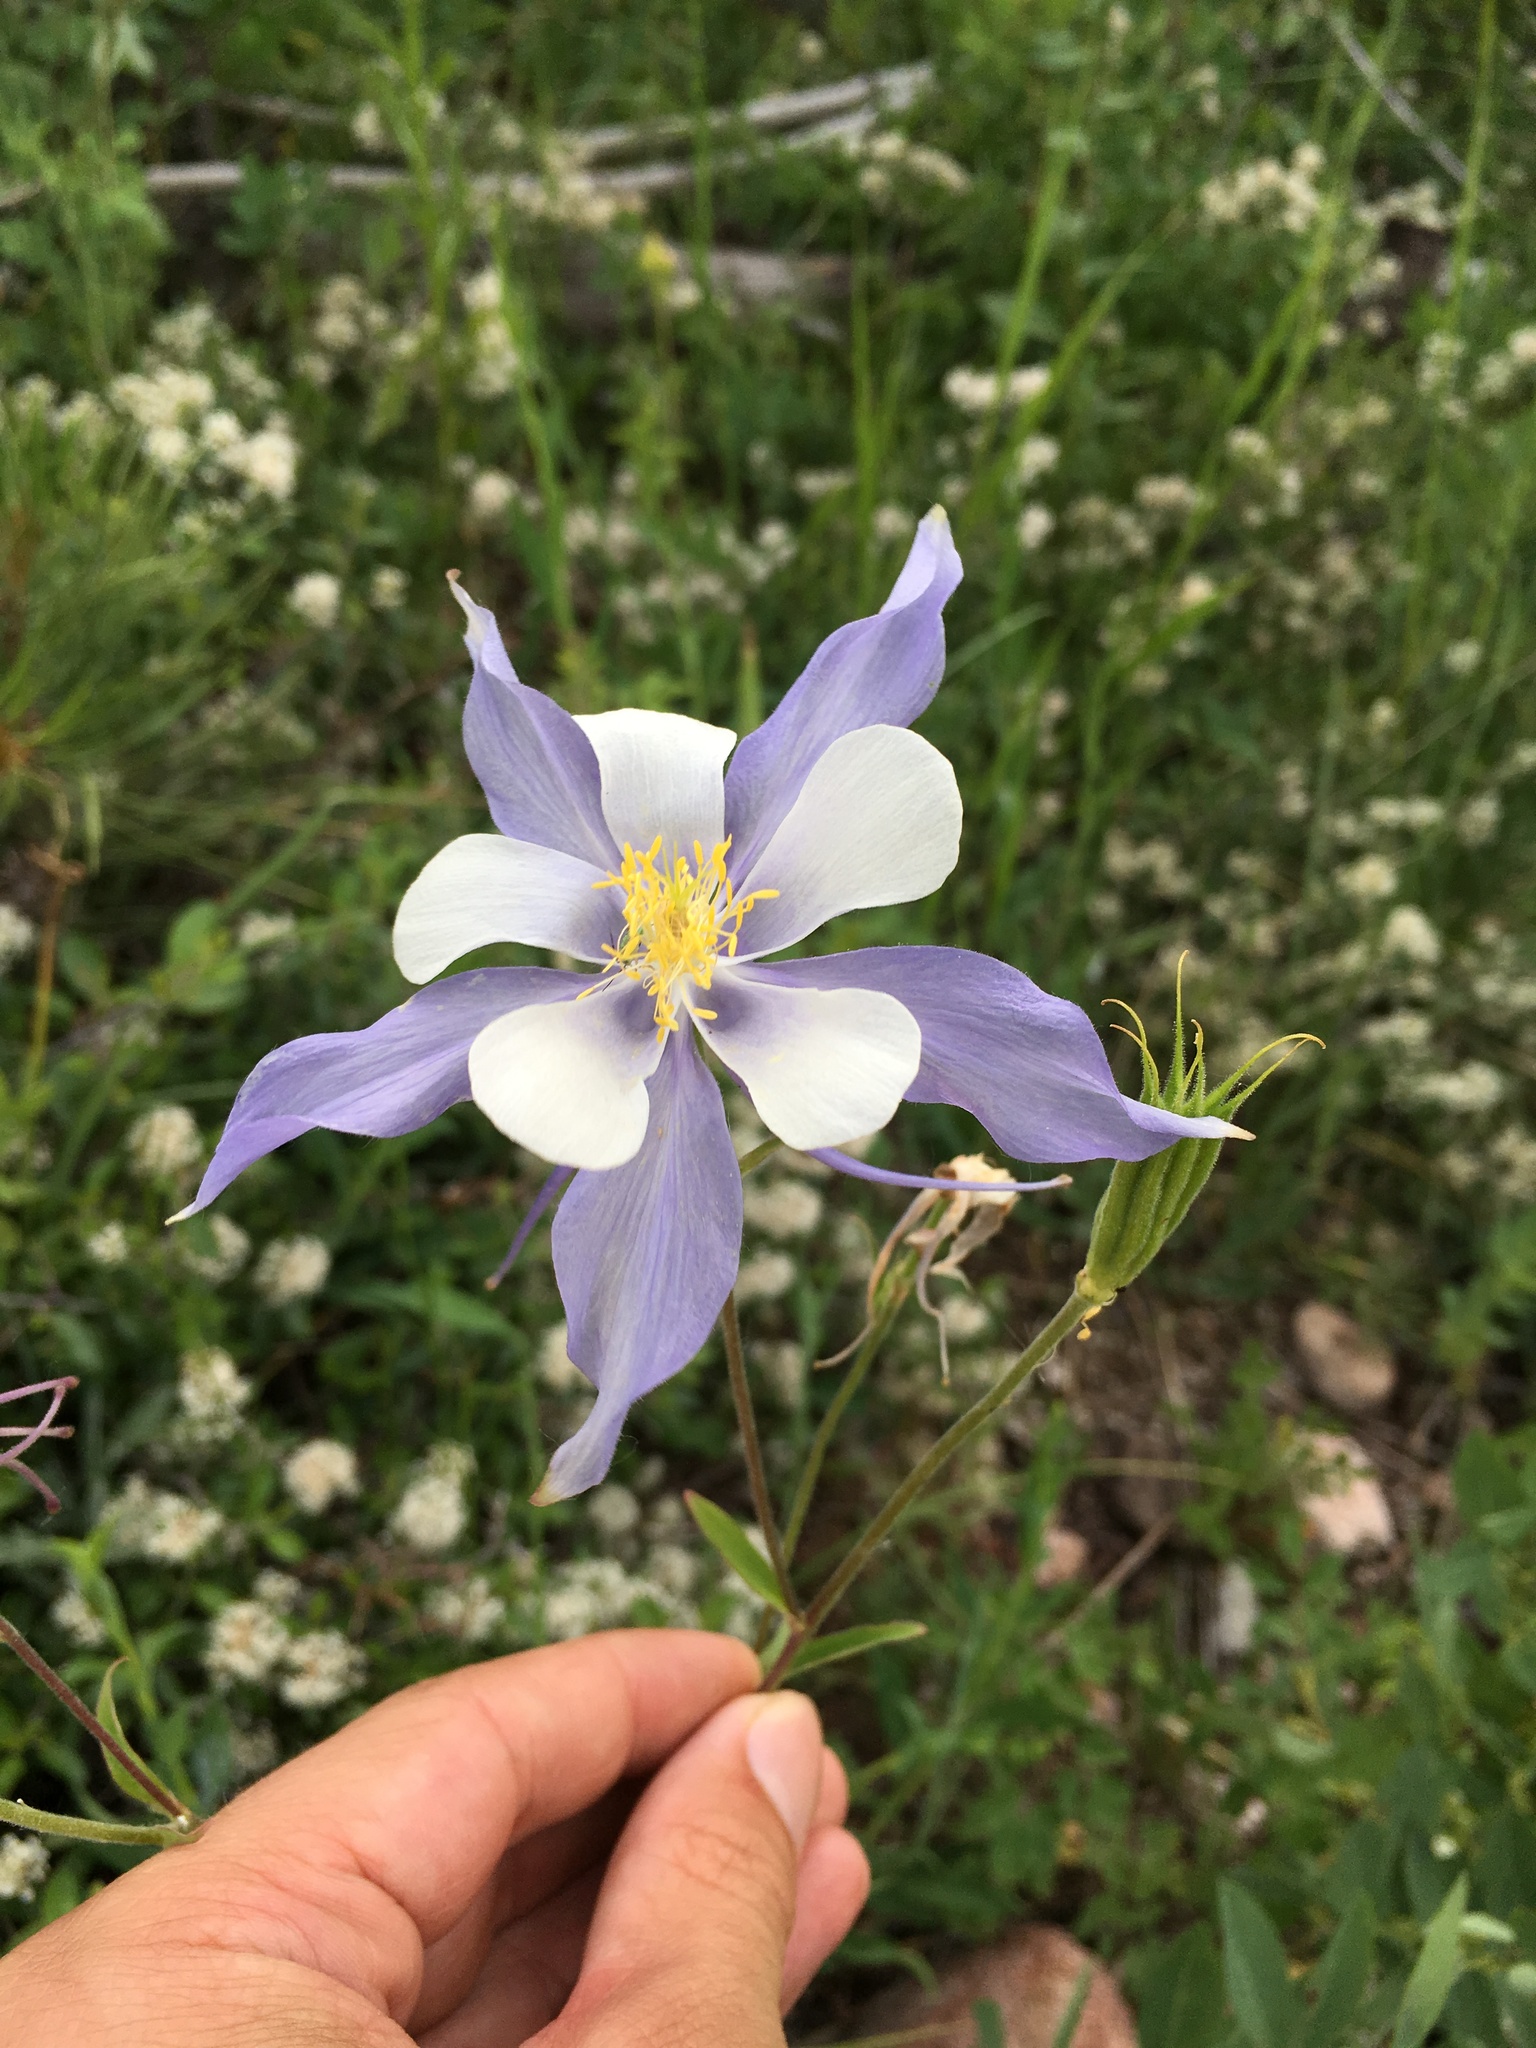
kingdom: Plantae
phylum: Tracheophyta
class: Magnoliopsida
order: Ranunculales
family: Ranunculaceae
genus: Aquilegia
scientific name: Aquilegia coerulea
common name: Rocky mountain columbine
